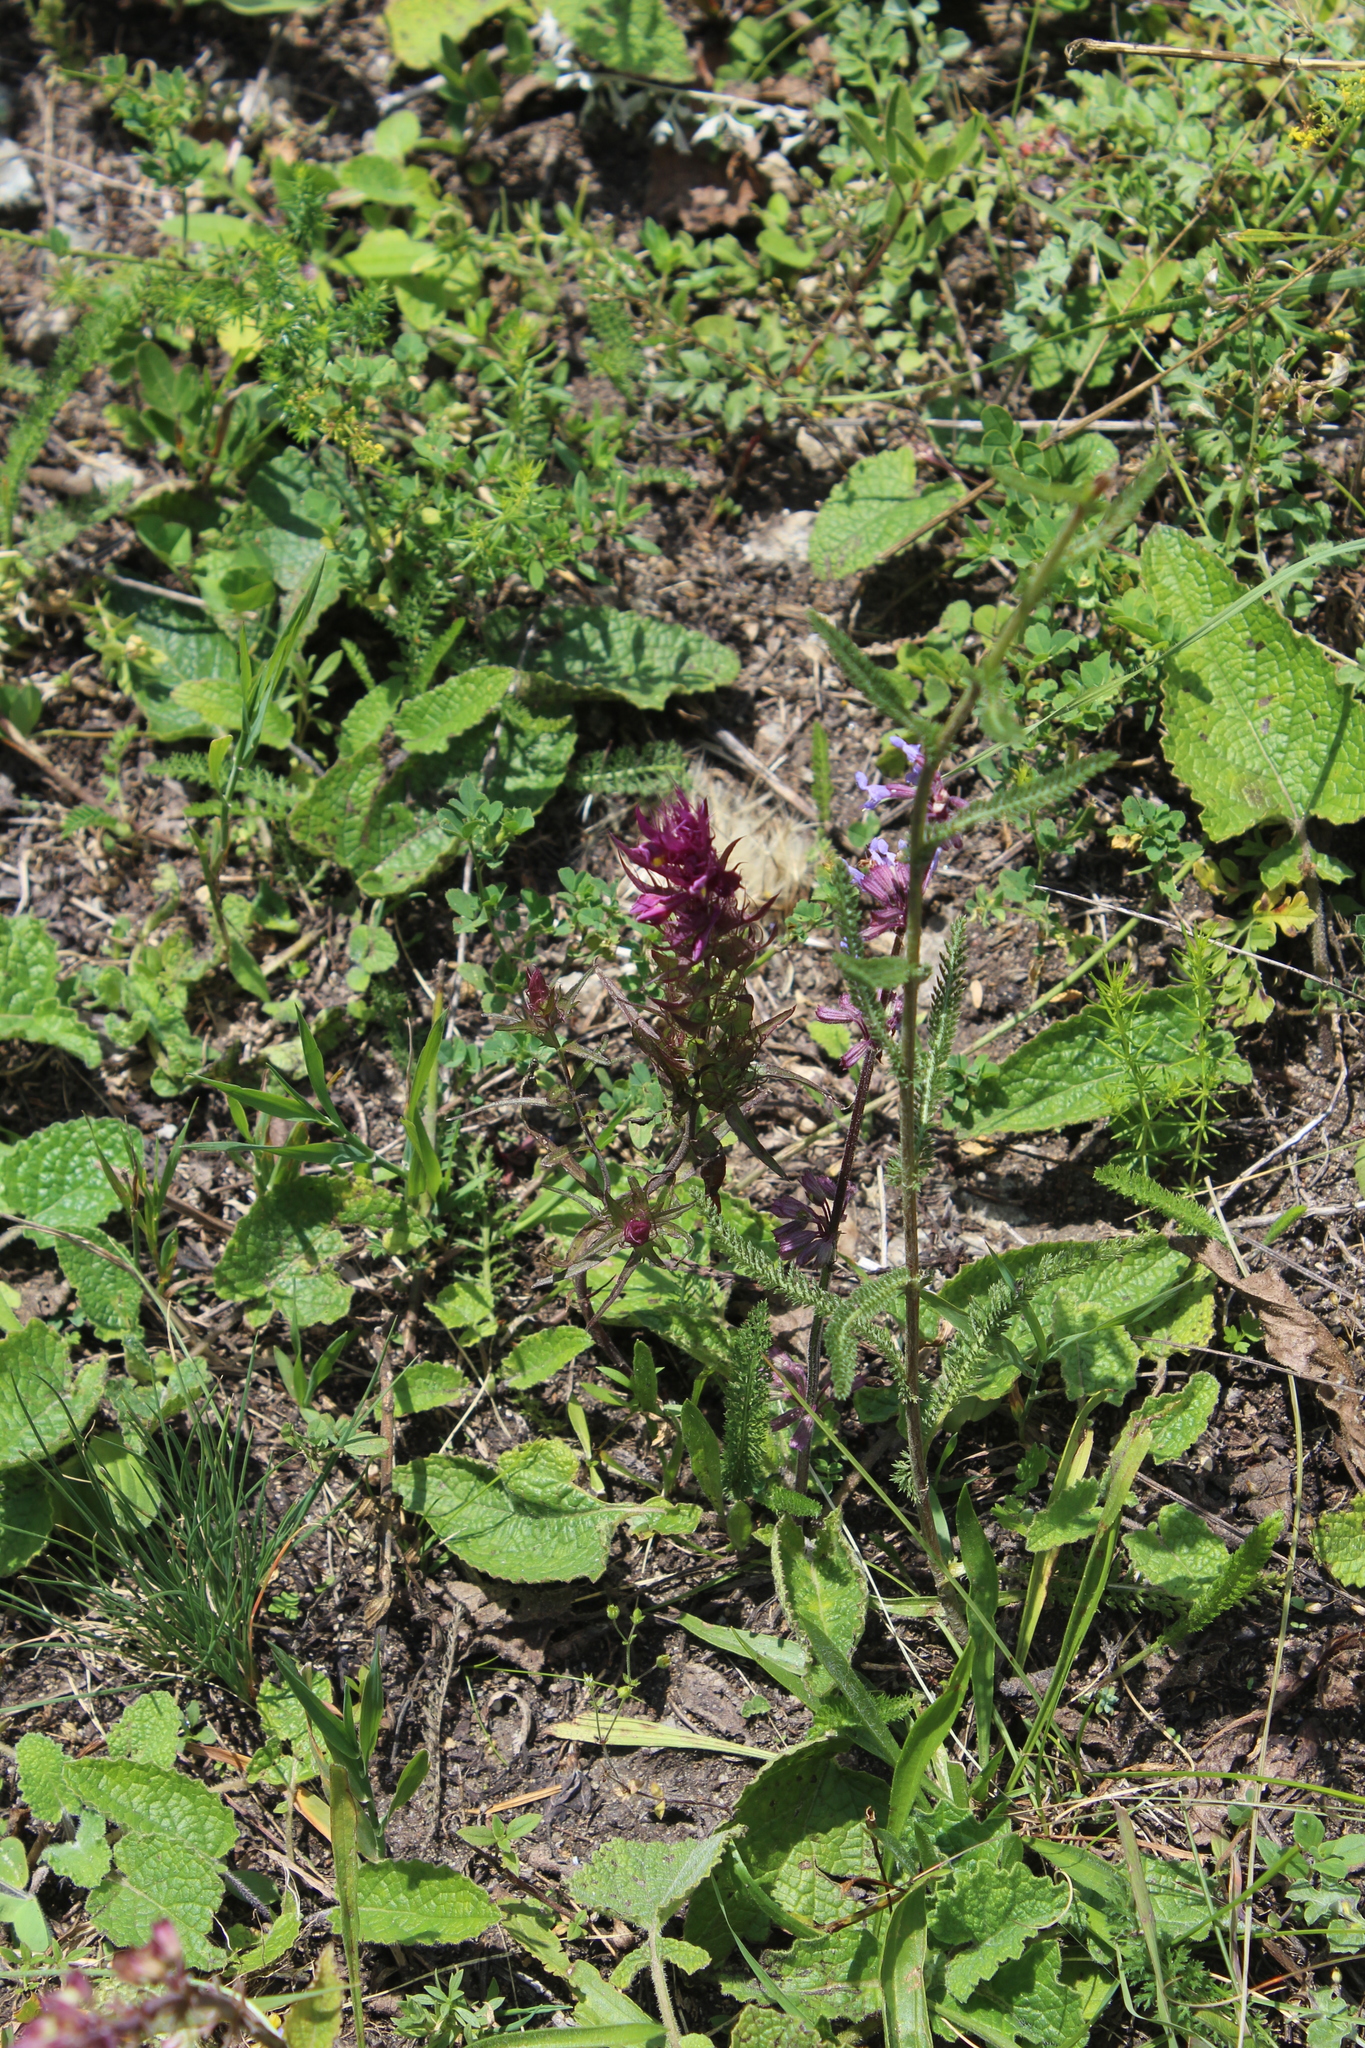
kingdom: Plantae
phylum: Tracheophyta
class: Magnoliopsida
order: Lamiales
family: Orobanchaceae
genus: Melampyrum
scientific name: Melampyrum arvense
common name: Field cow-wheat
